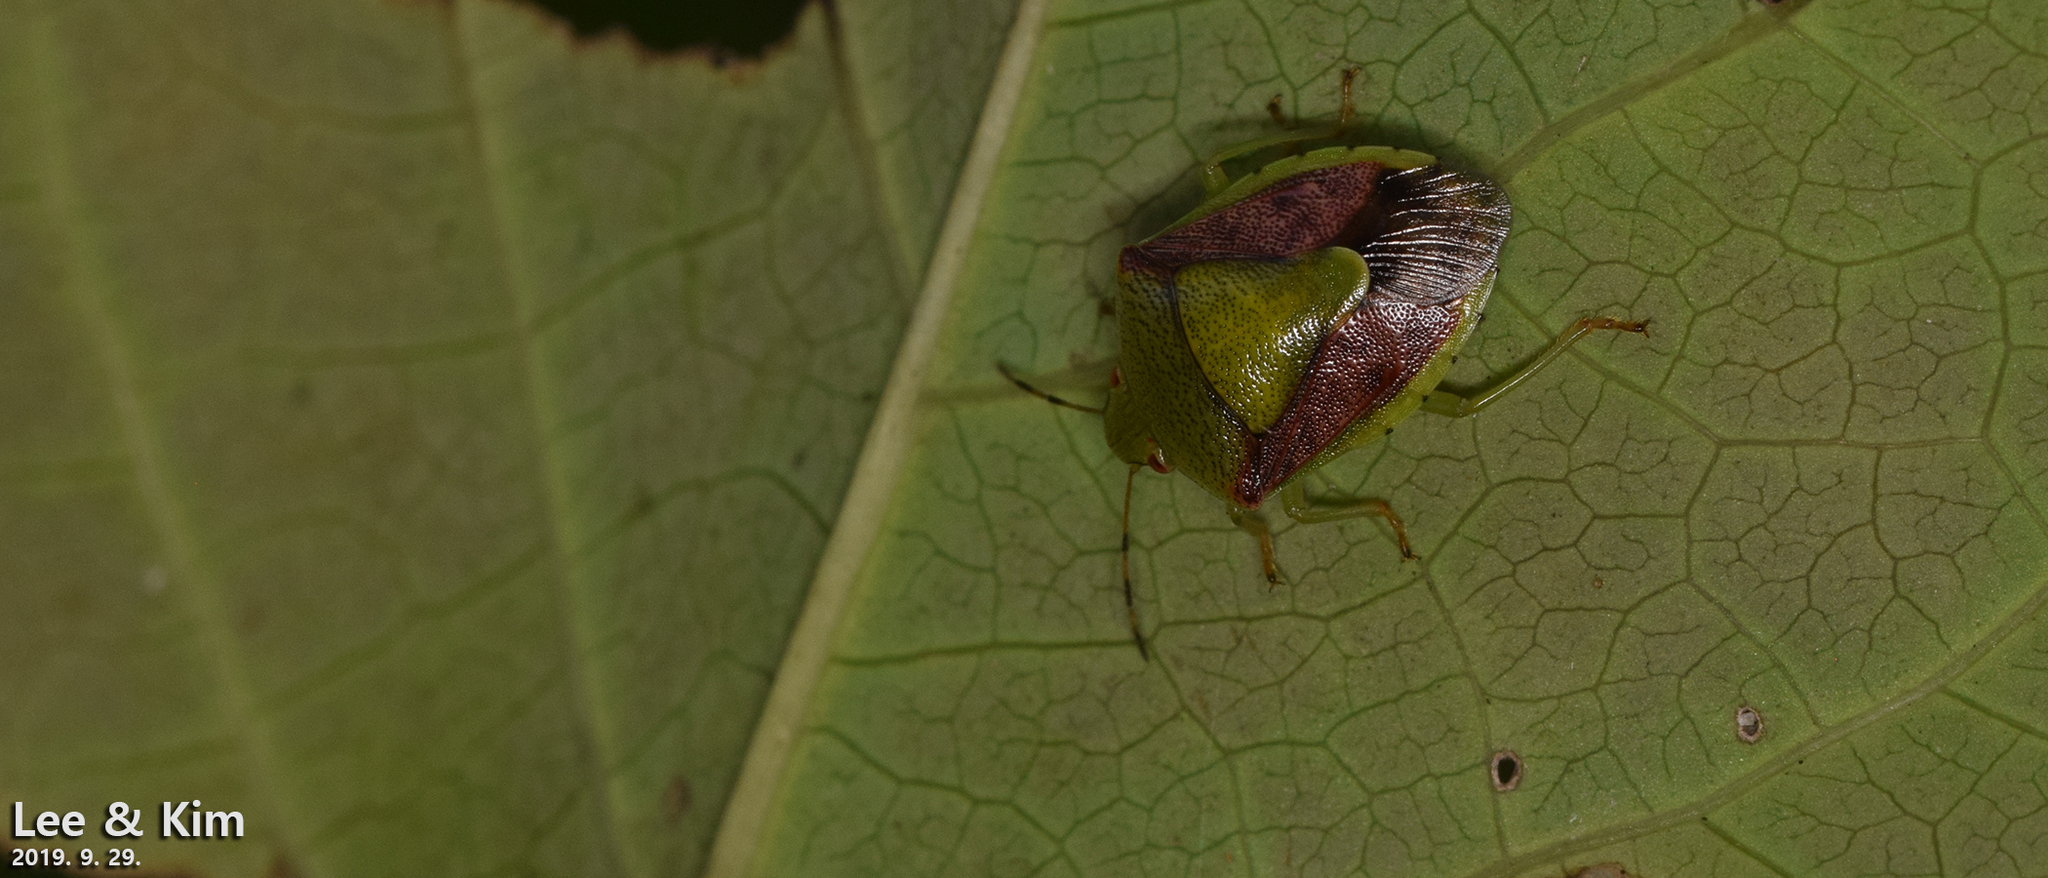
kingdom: Animalia
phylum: Arthropoda
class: Insecta
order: Hemiptera
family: Pentatomidae
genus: Plautia
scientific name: Plautia stali
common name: Stink bug
